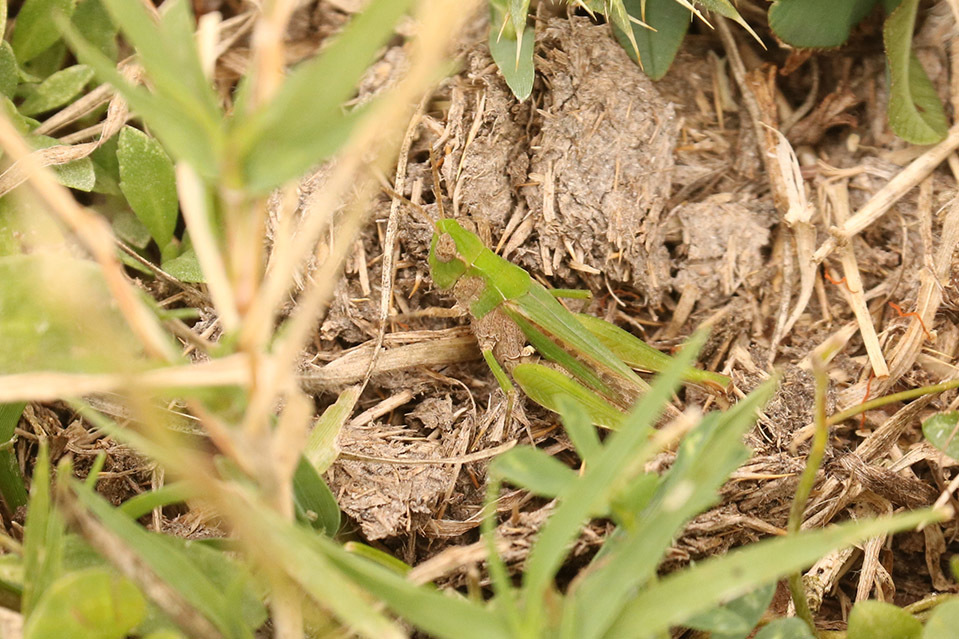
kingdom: Animalia
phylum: Arthropoda
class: Insecta
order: Orthoptera
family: Acrididae
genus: Orphulella
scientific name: Orphulella punctata
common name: Slant-faced grasshopper
